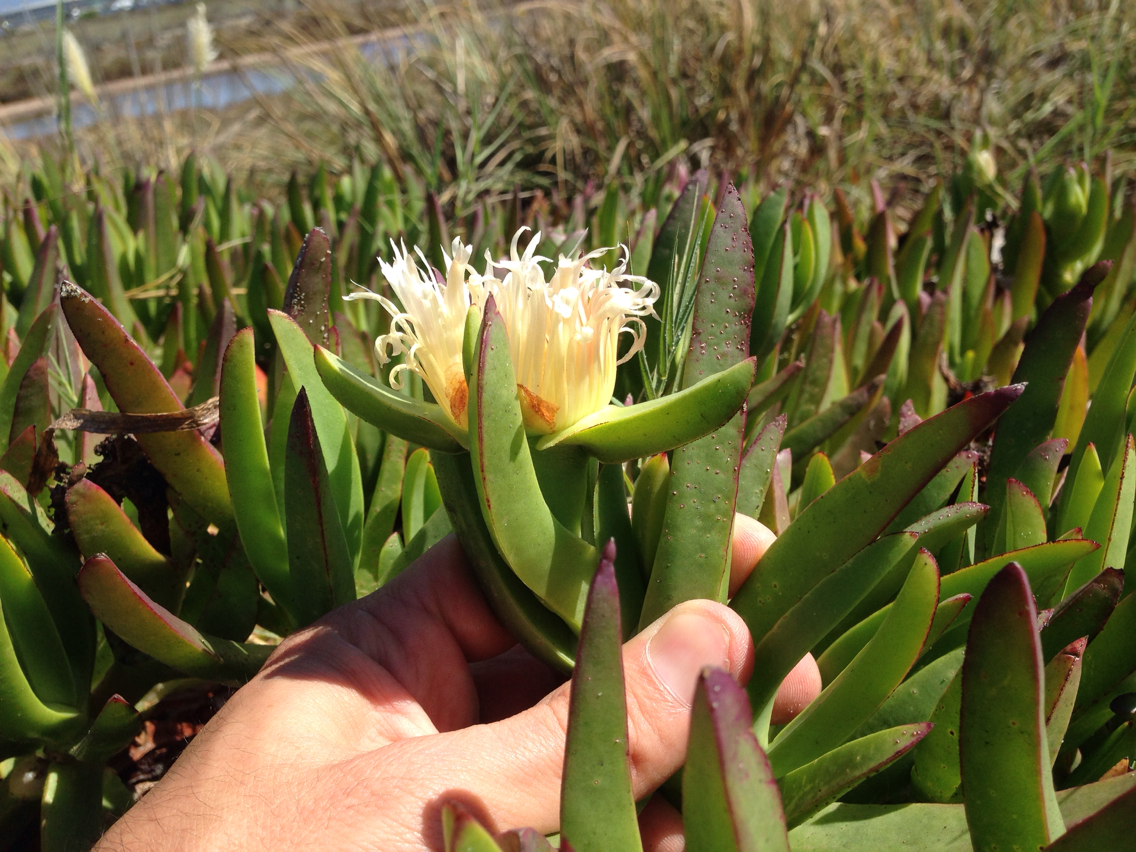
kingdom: Plantae
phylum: Tracheophyta
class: Magnoliopsida
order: Caryophyllales
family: Aizoaceae
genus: Carpobrotus
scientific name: Carpobrotus edulis
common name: Hottentot-fig
